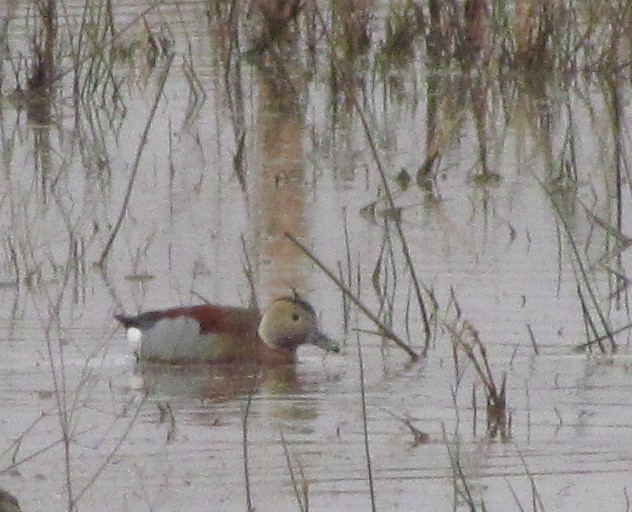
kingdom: Animalia
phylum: Chordata
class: Aves
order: Anseriformes
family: Anatidae
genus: Callonetta
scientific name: Callonetta leucophrys
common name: Ringed teal
